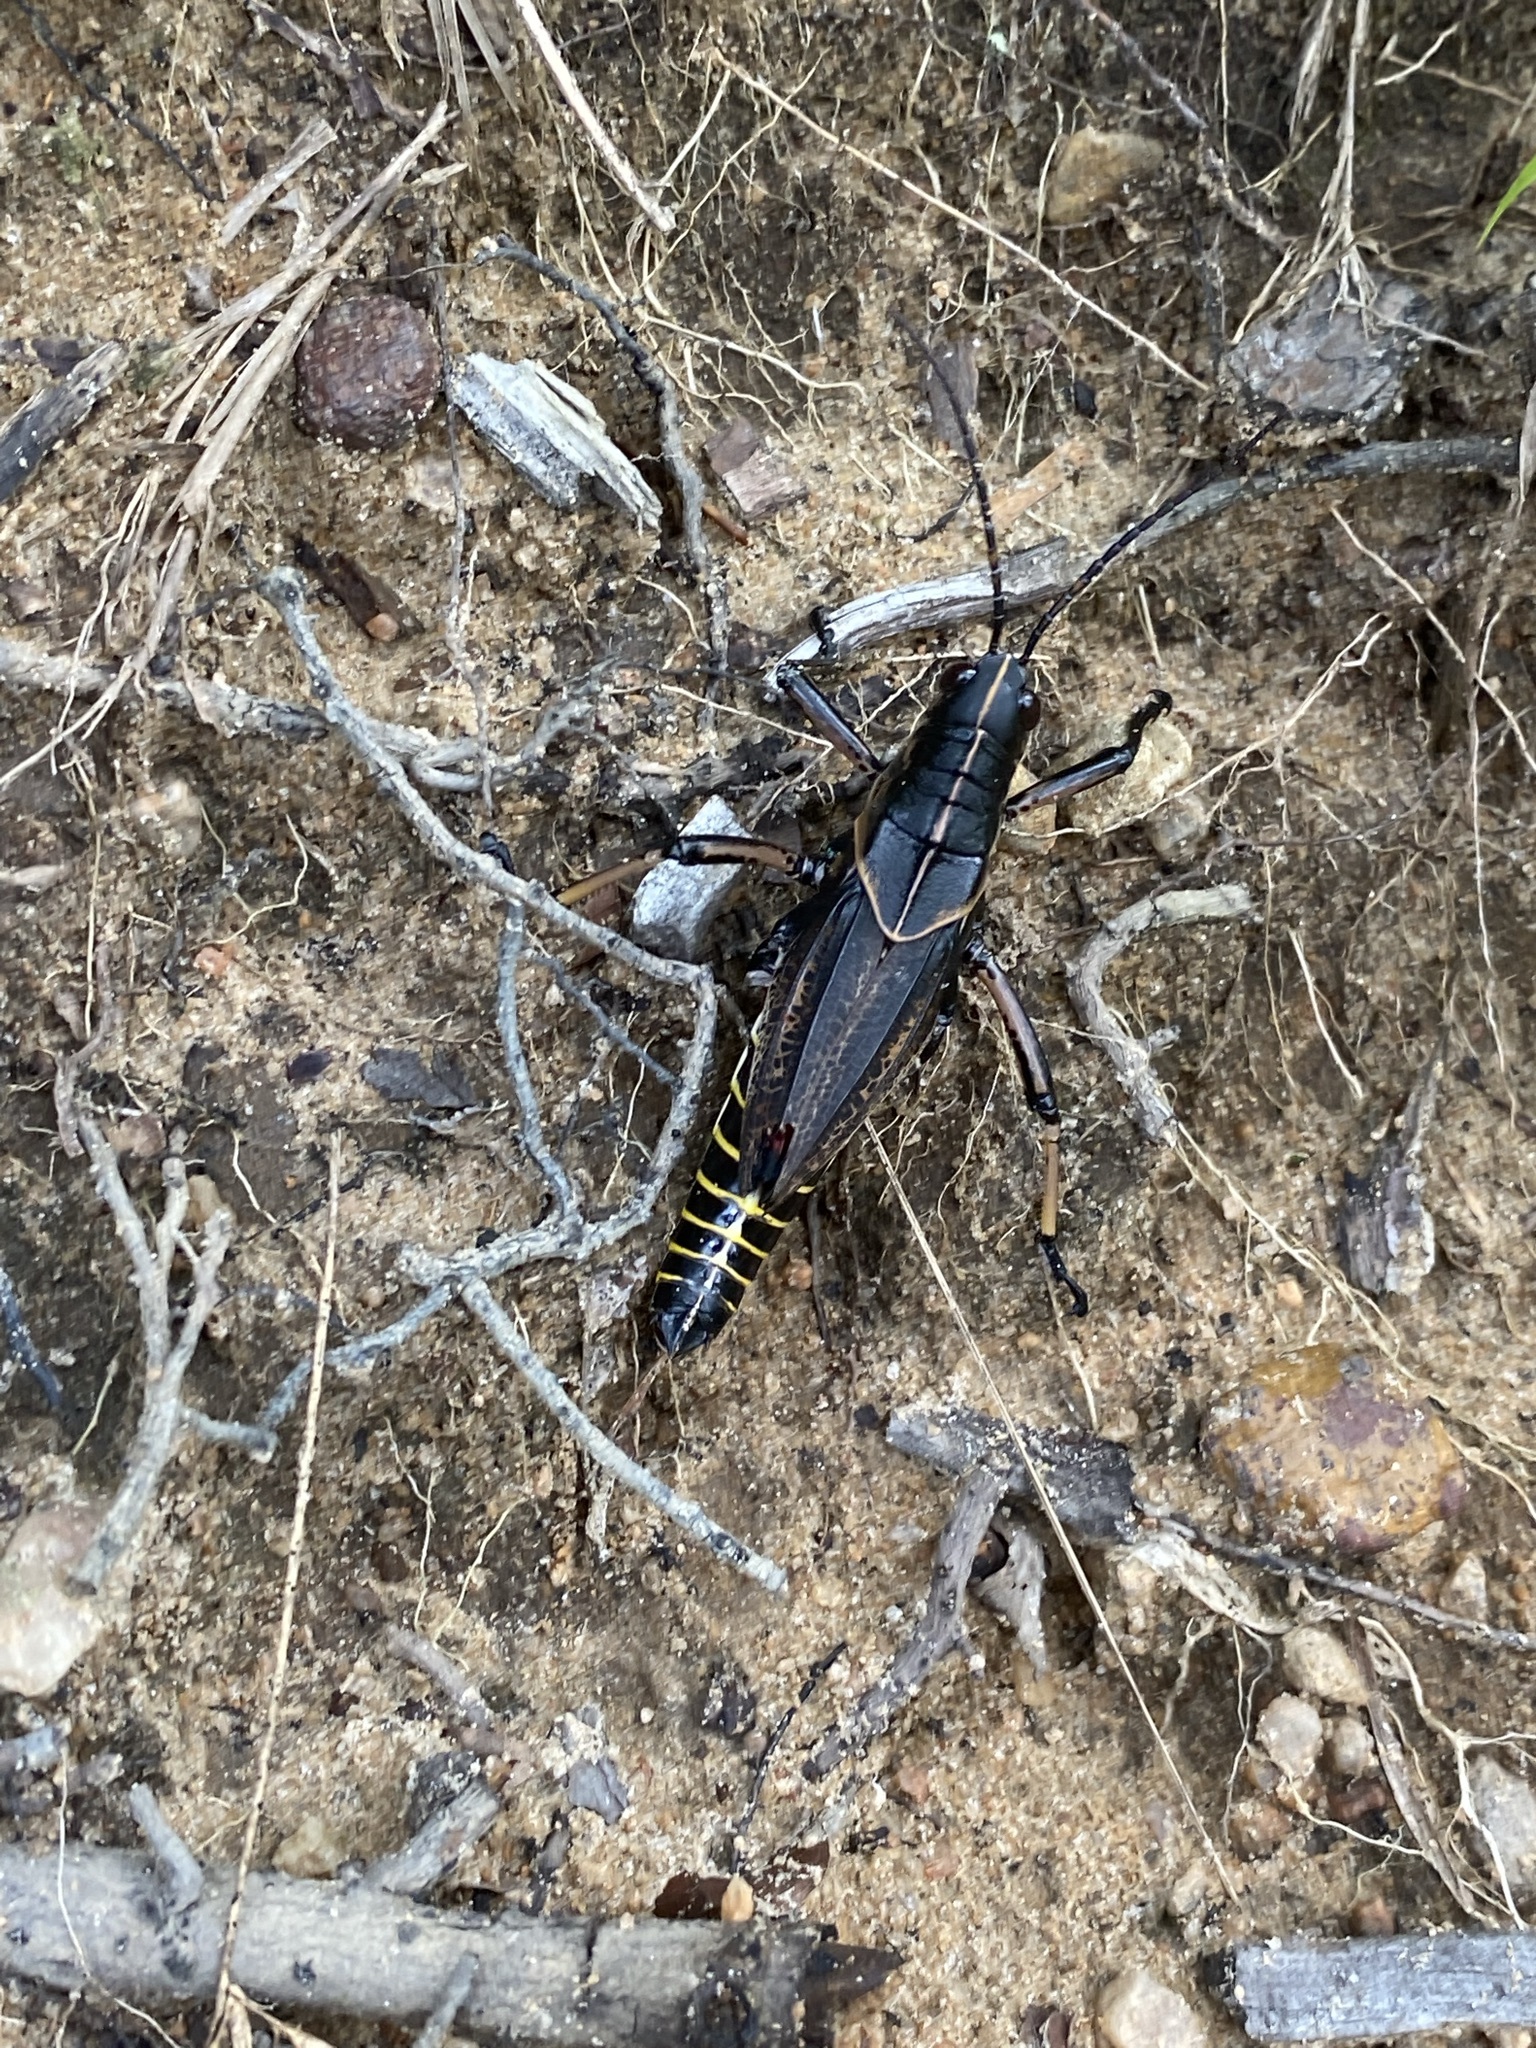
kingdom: Animalia
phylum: Arthropoda
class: Insecta
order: Orthoptera
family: Romaleidae
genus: Romalea
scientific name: Romalea microptera
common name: Eastern lubber grasshopper
